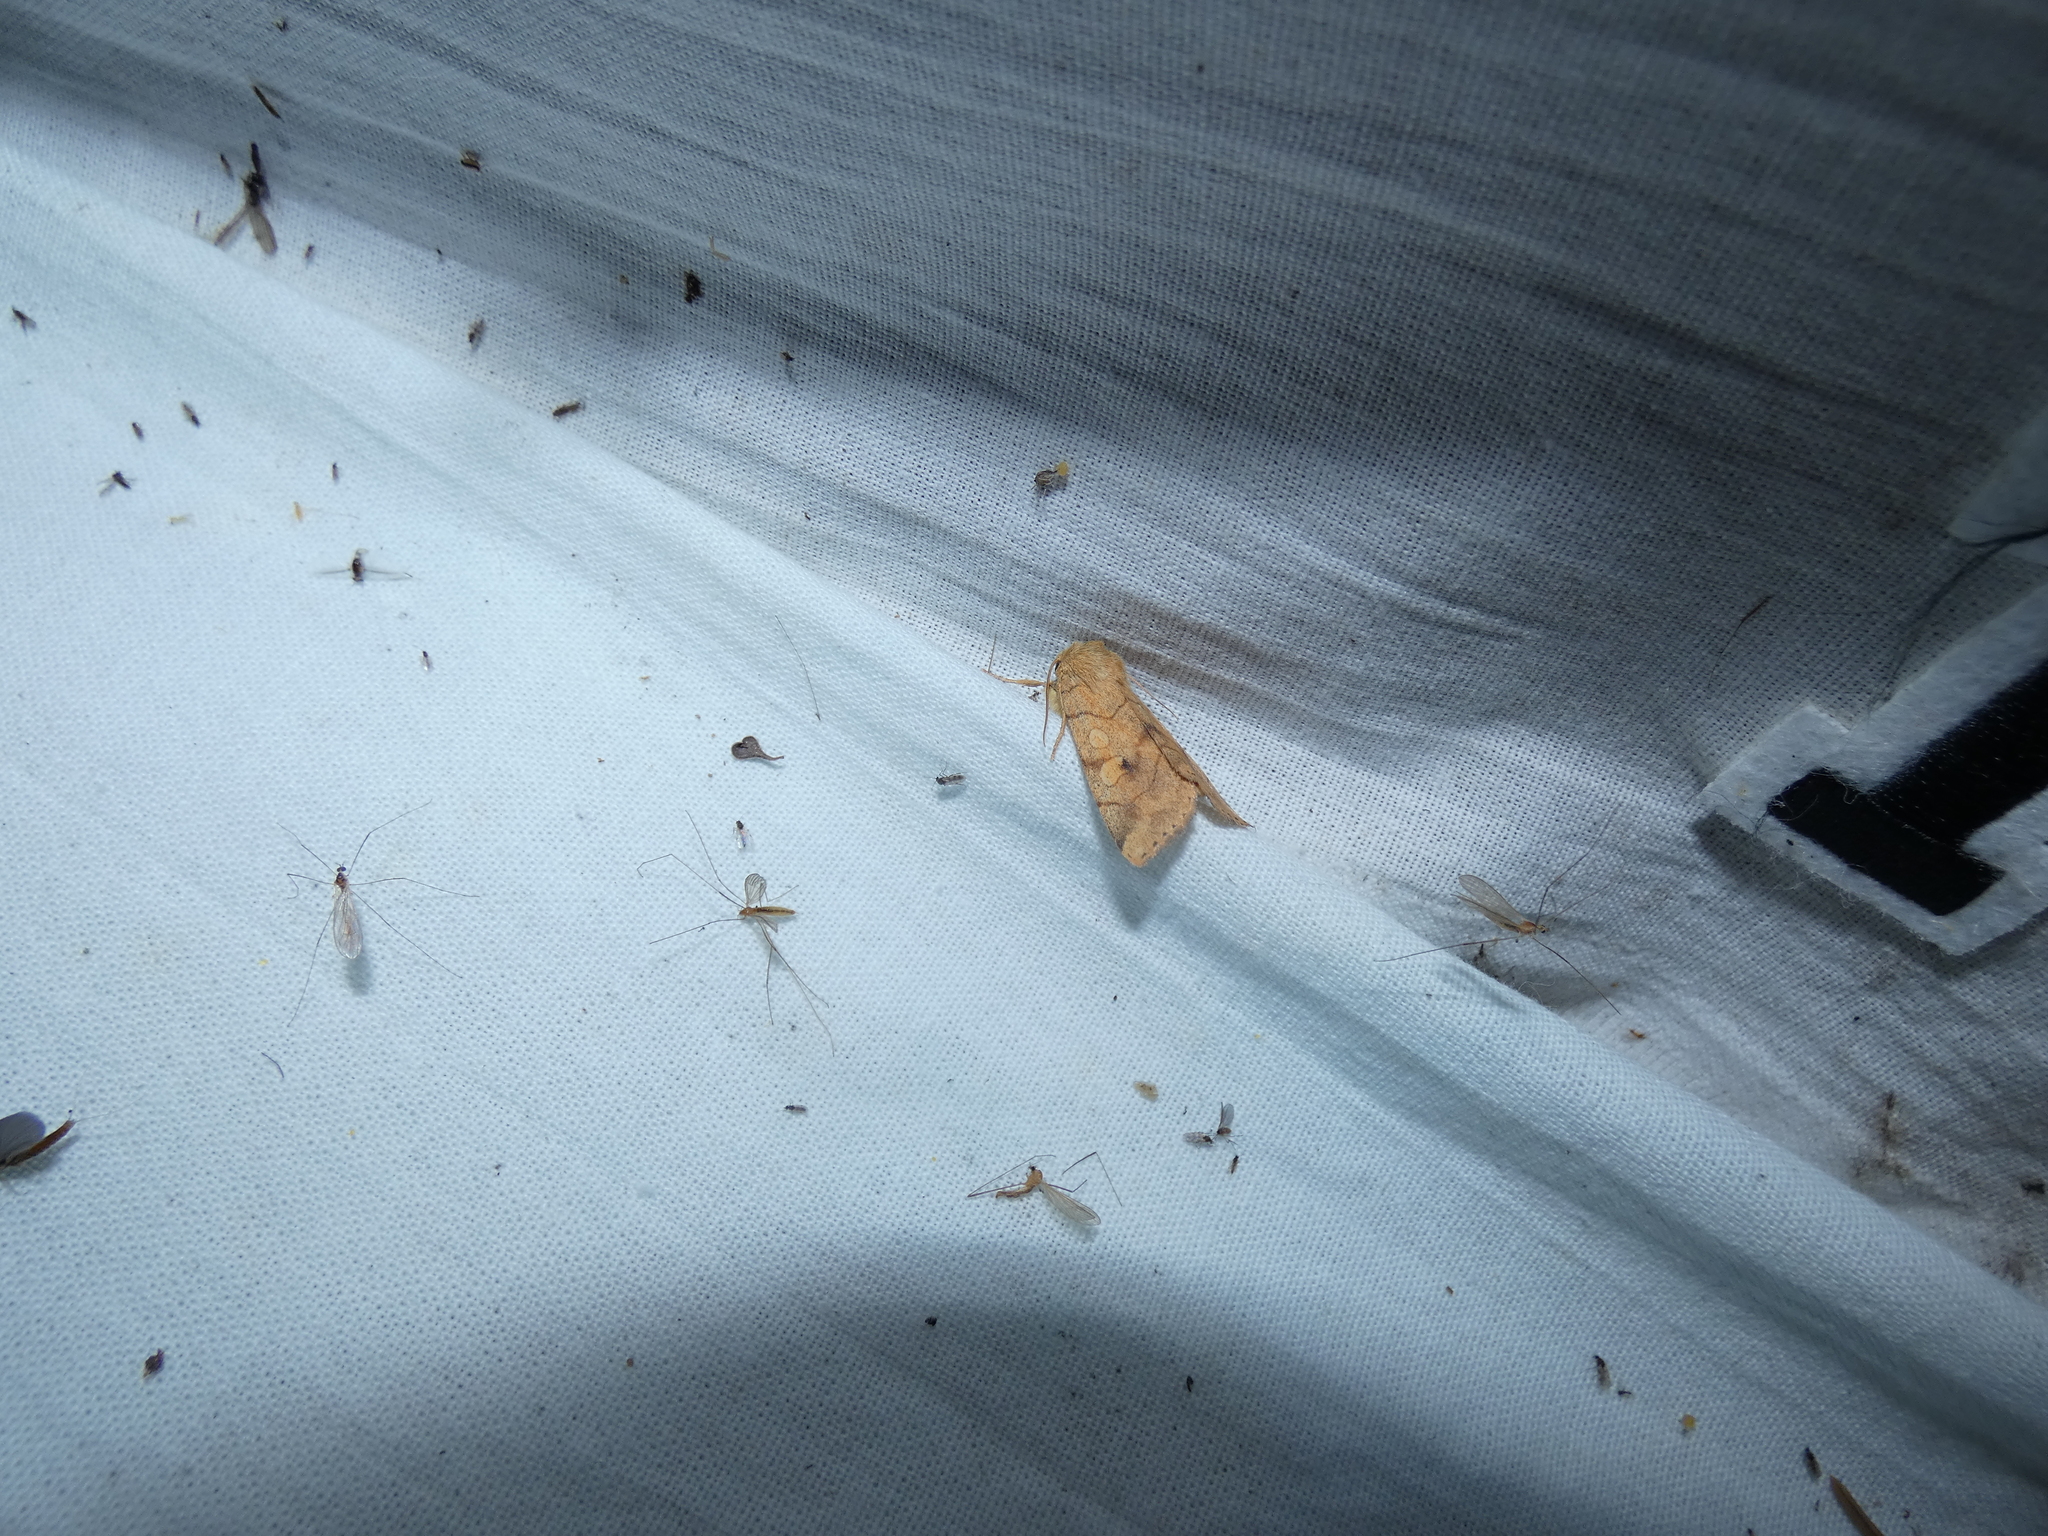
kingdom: Animalia
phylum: Arthropoda
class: Insecta
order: Lepidoptera
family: Noctuidae
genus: Enargia
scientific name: Enargia paleacea
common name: Angle-striped sallow
